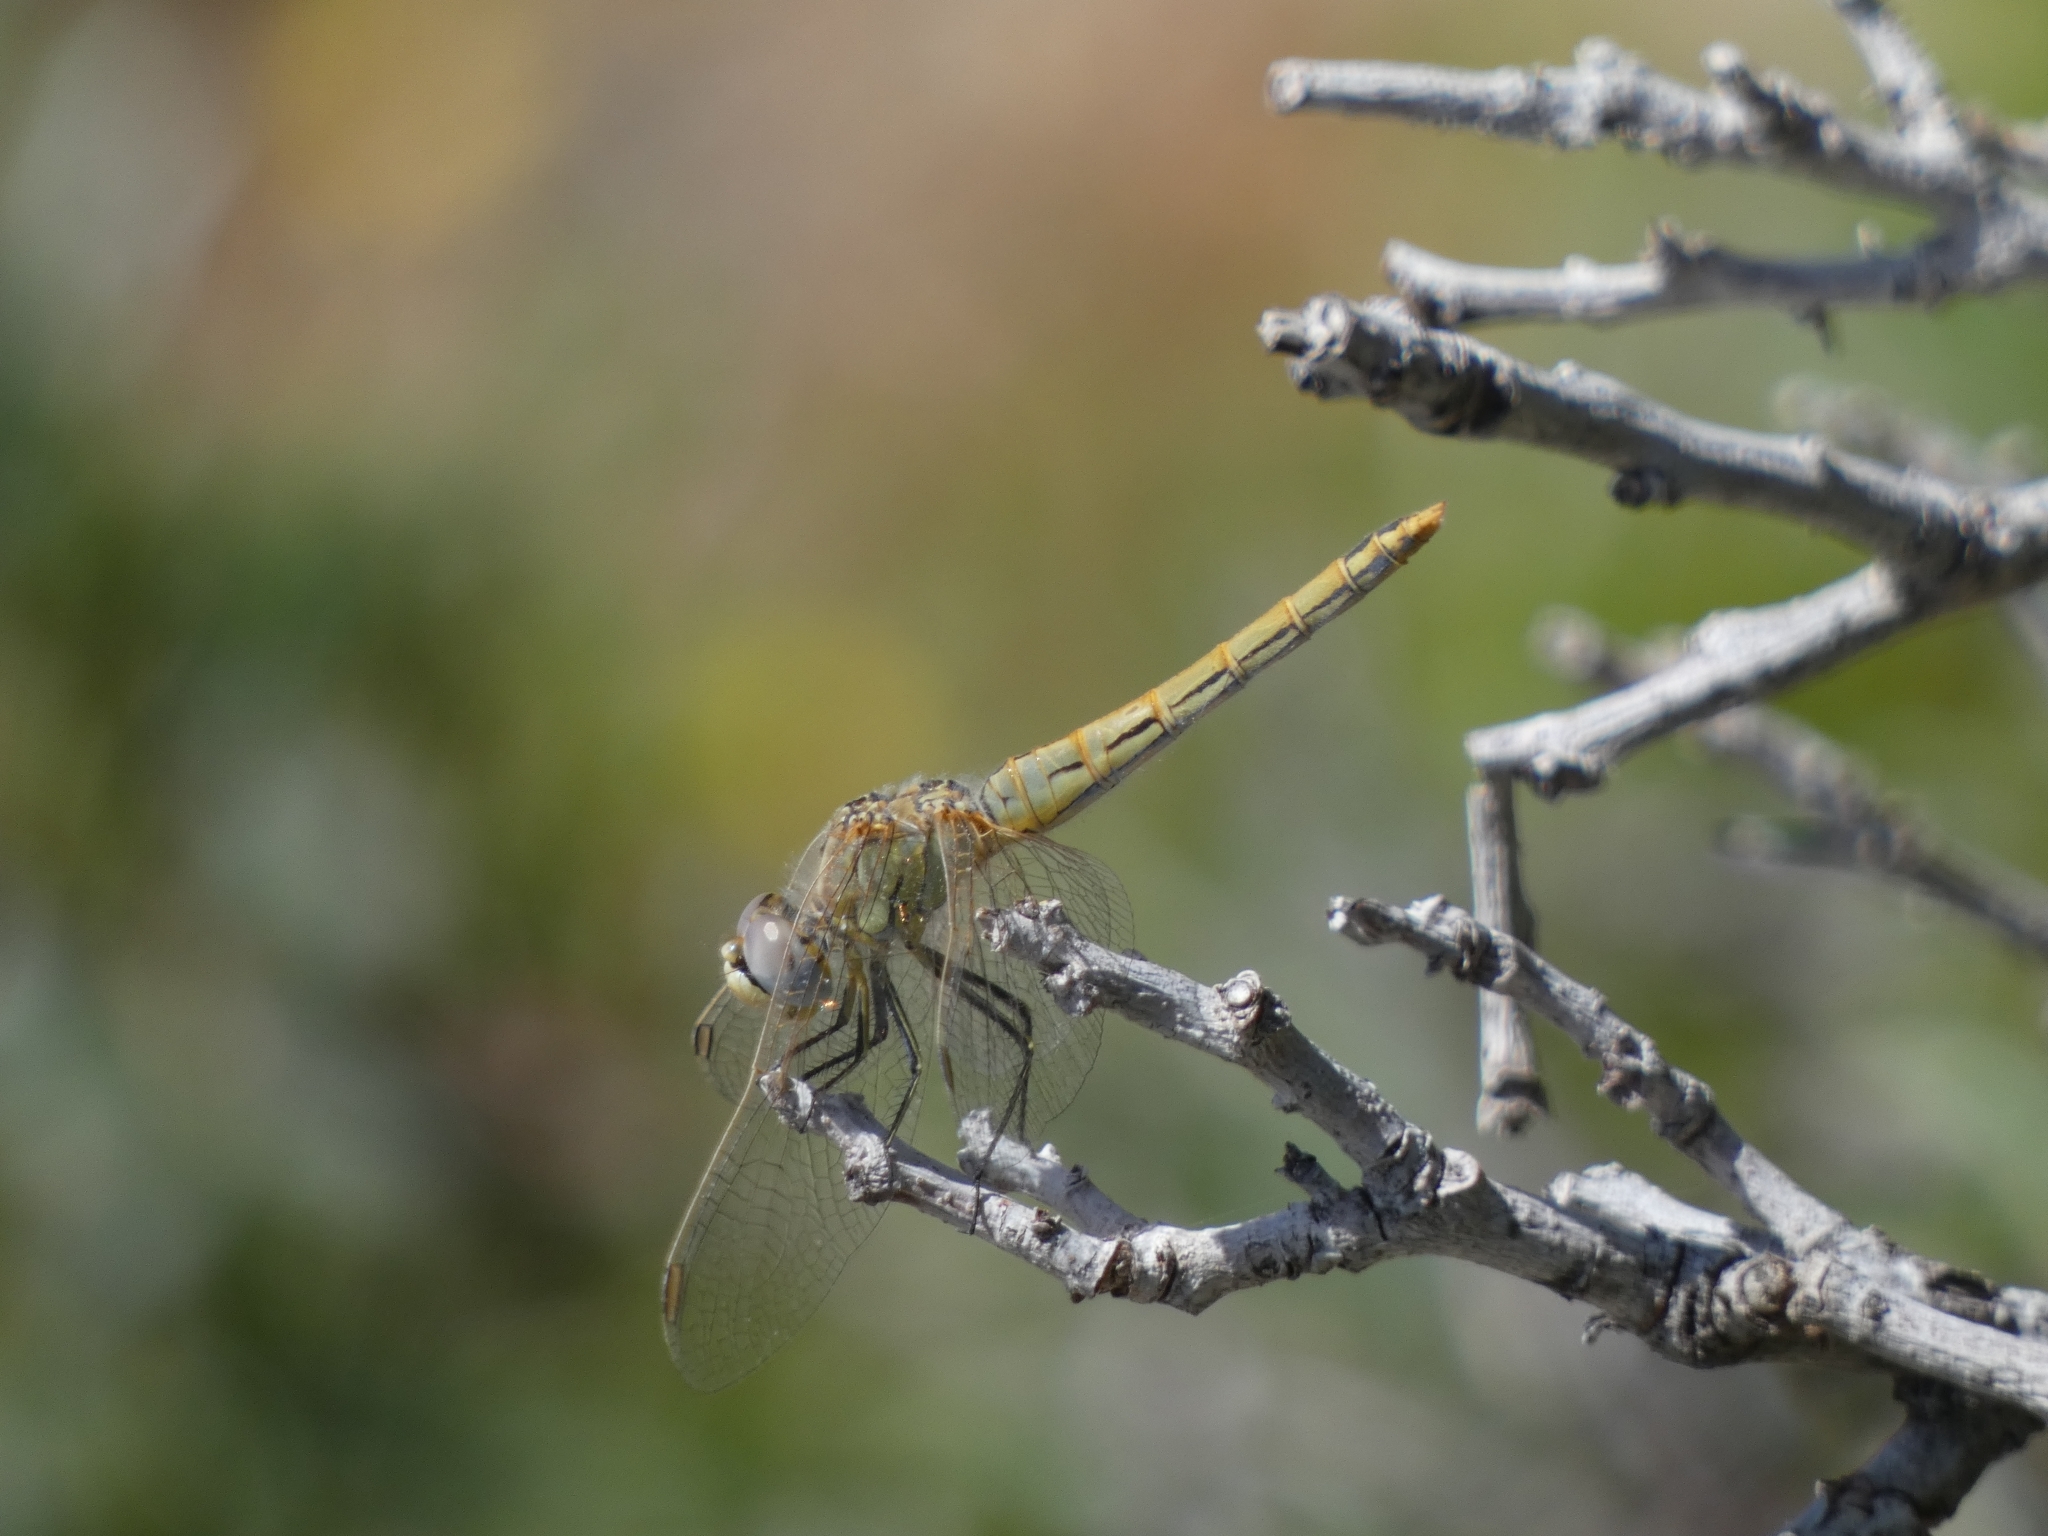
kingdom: Animalia
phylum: Arthropoda
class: Insecta
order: Odonata
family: Libellulidae
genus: Sympetrum
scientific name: Sympetrum fonscolombii
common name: Red-veined darter
